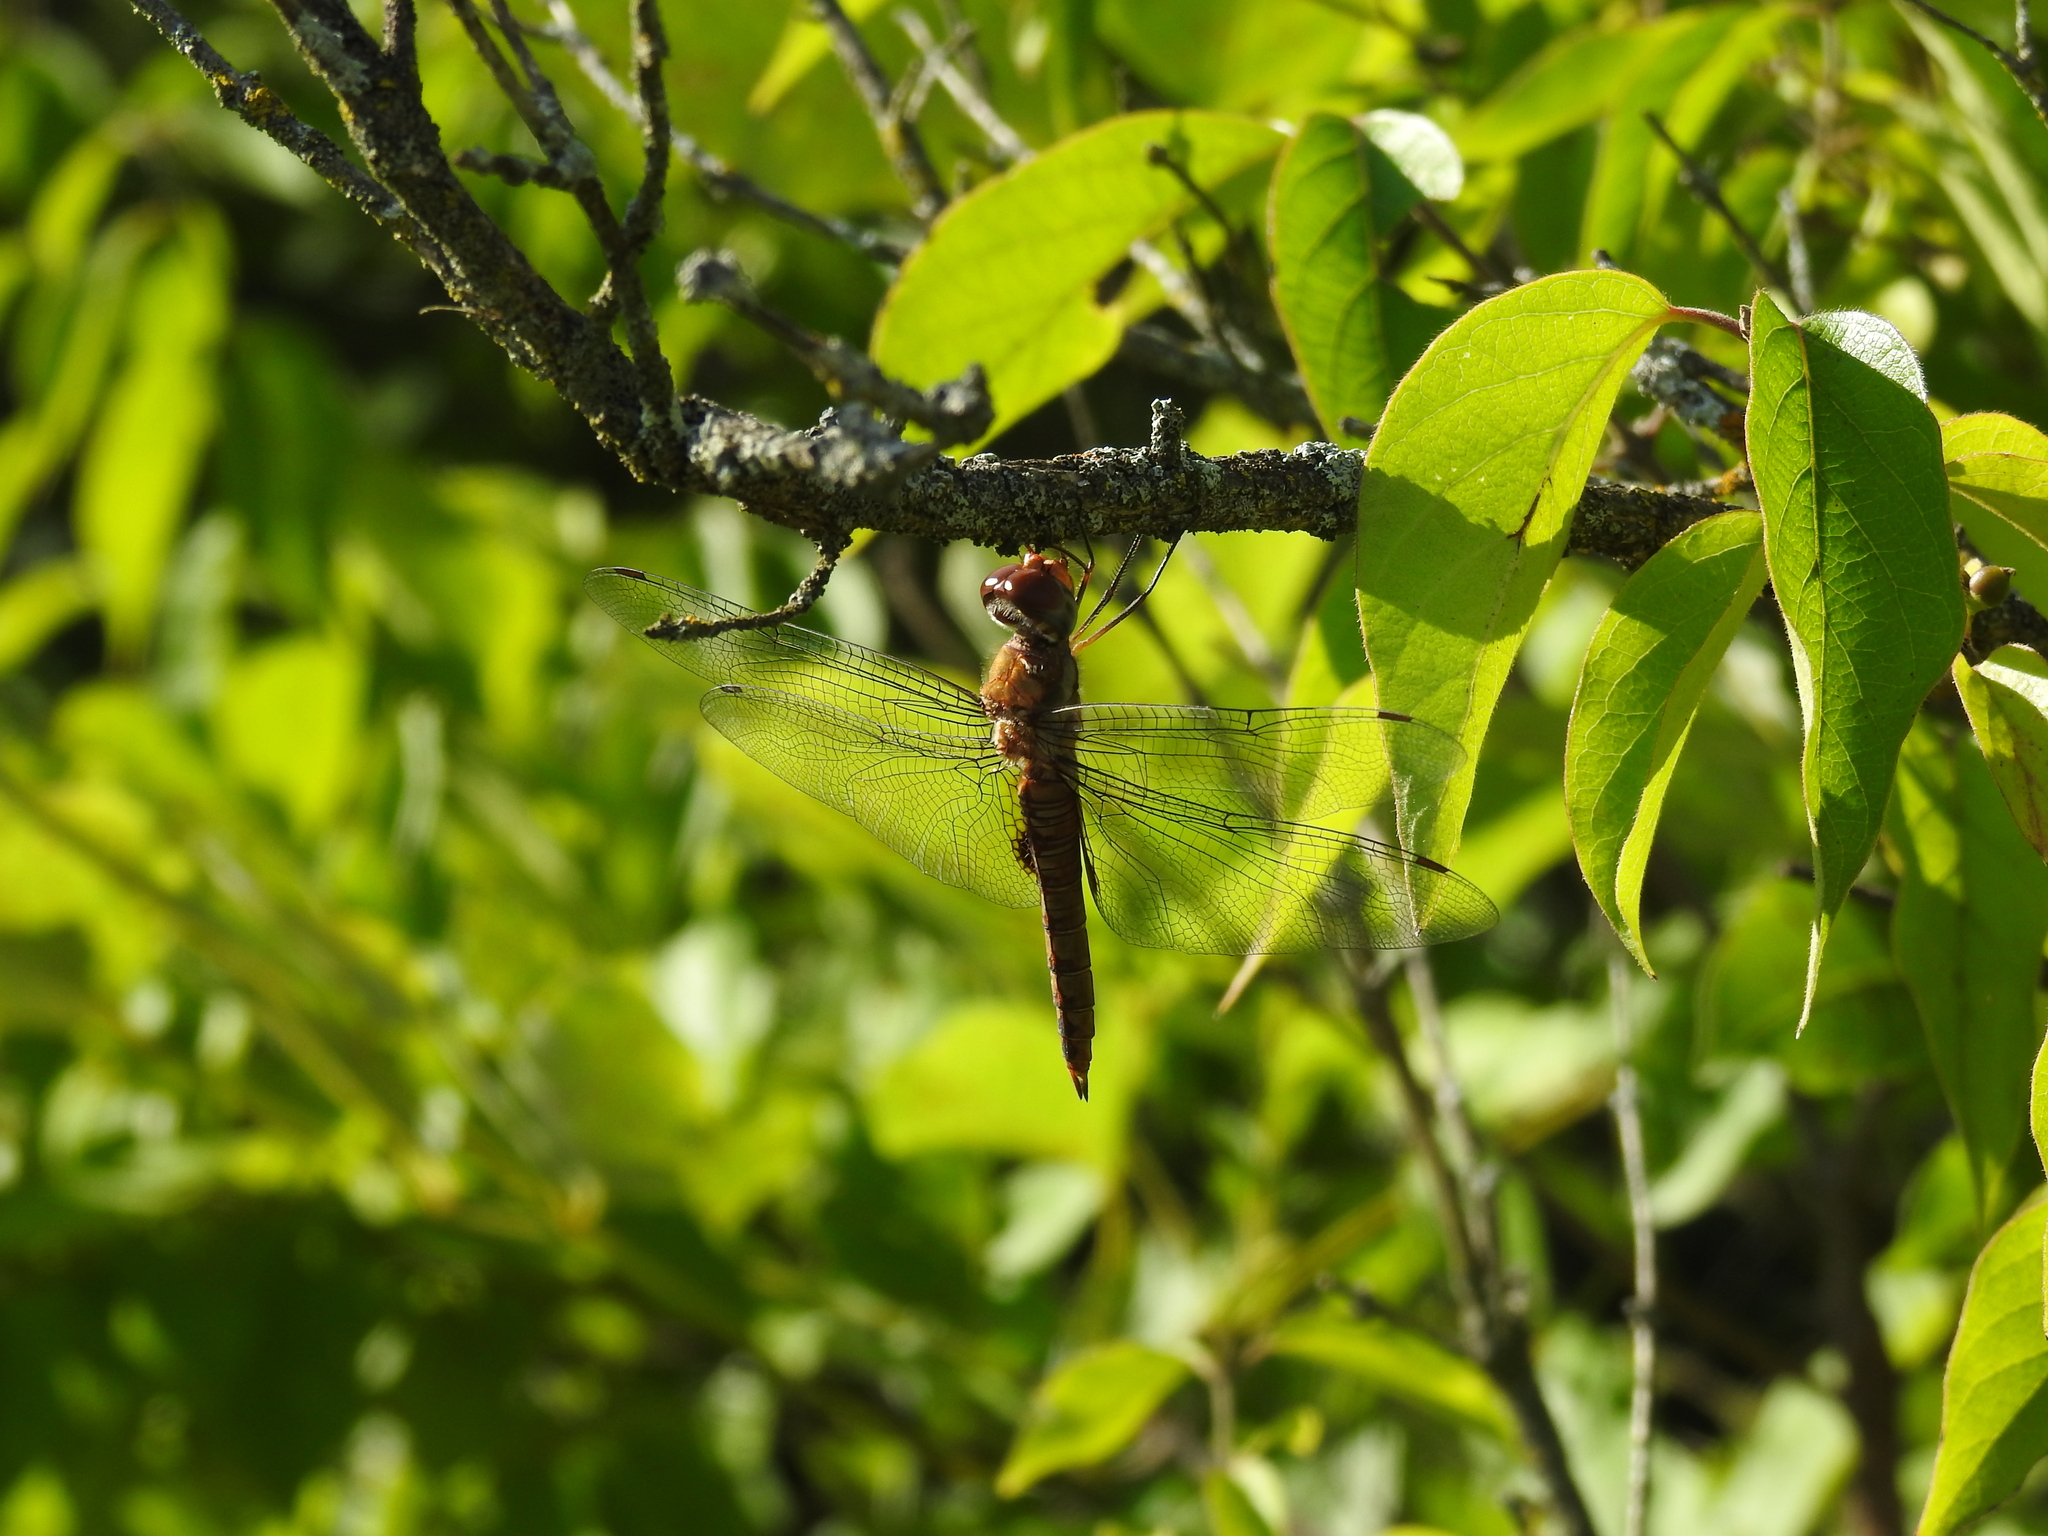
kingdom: Animalia
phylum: Arthropoda
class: Insecta
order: Odonata
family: Libellulidae
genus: Pantala
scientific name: Pantala hymenaea
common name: Spot-winged glider
